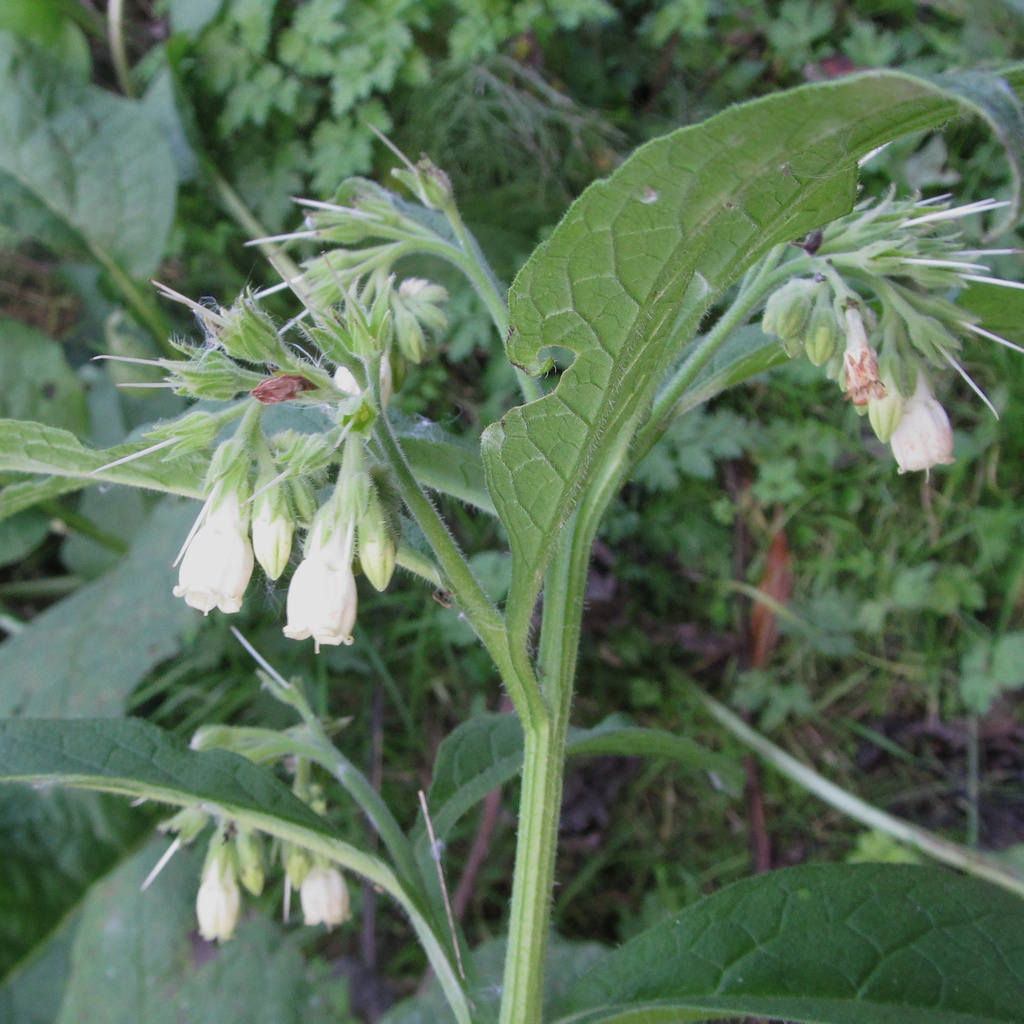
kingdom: Plantae
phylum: Tracheophyta
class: Magnoliopsida
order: Boraginales
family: Boraginaceae
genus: Symphytum
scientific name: Symphytum officinale
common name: Common comfrey
